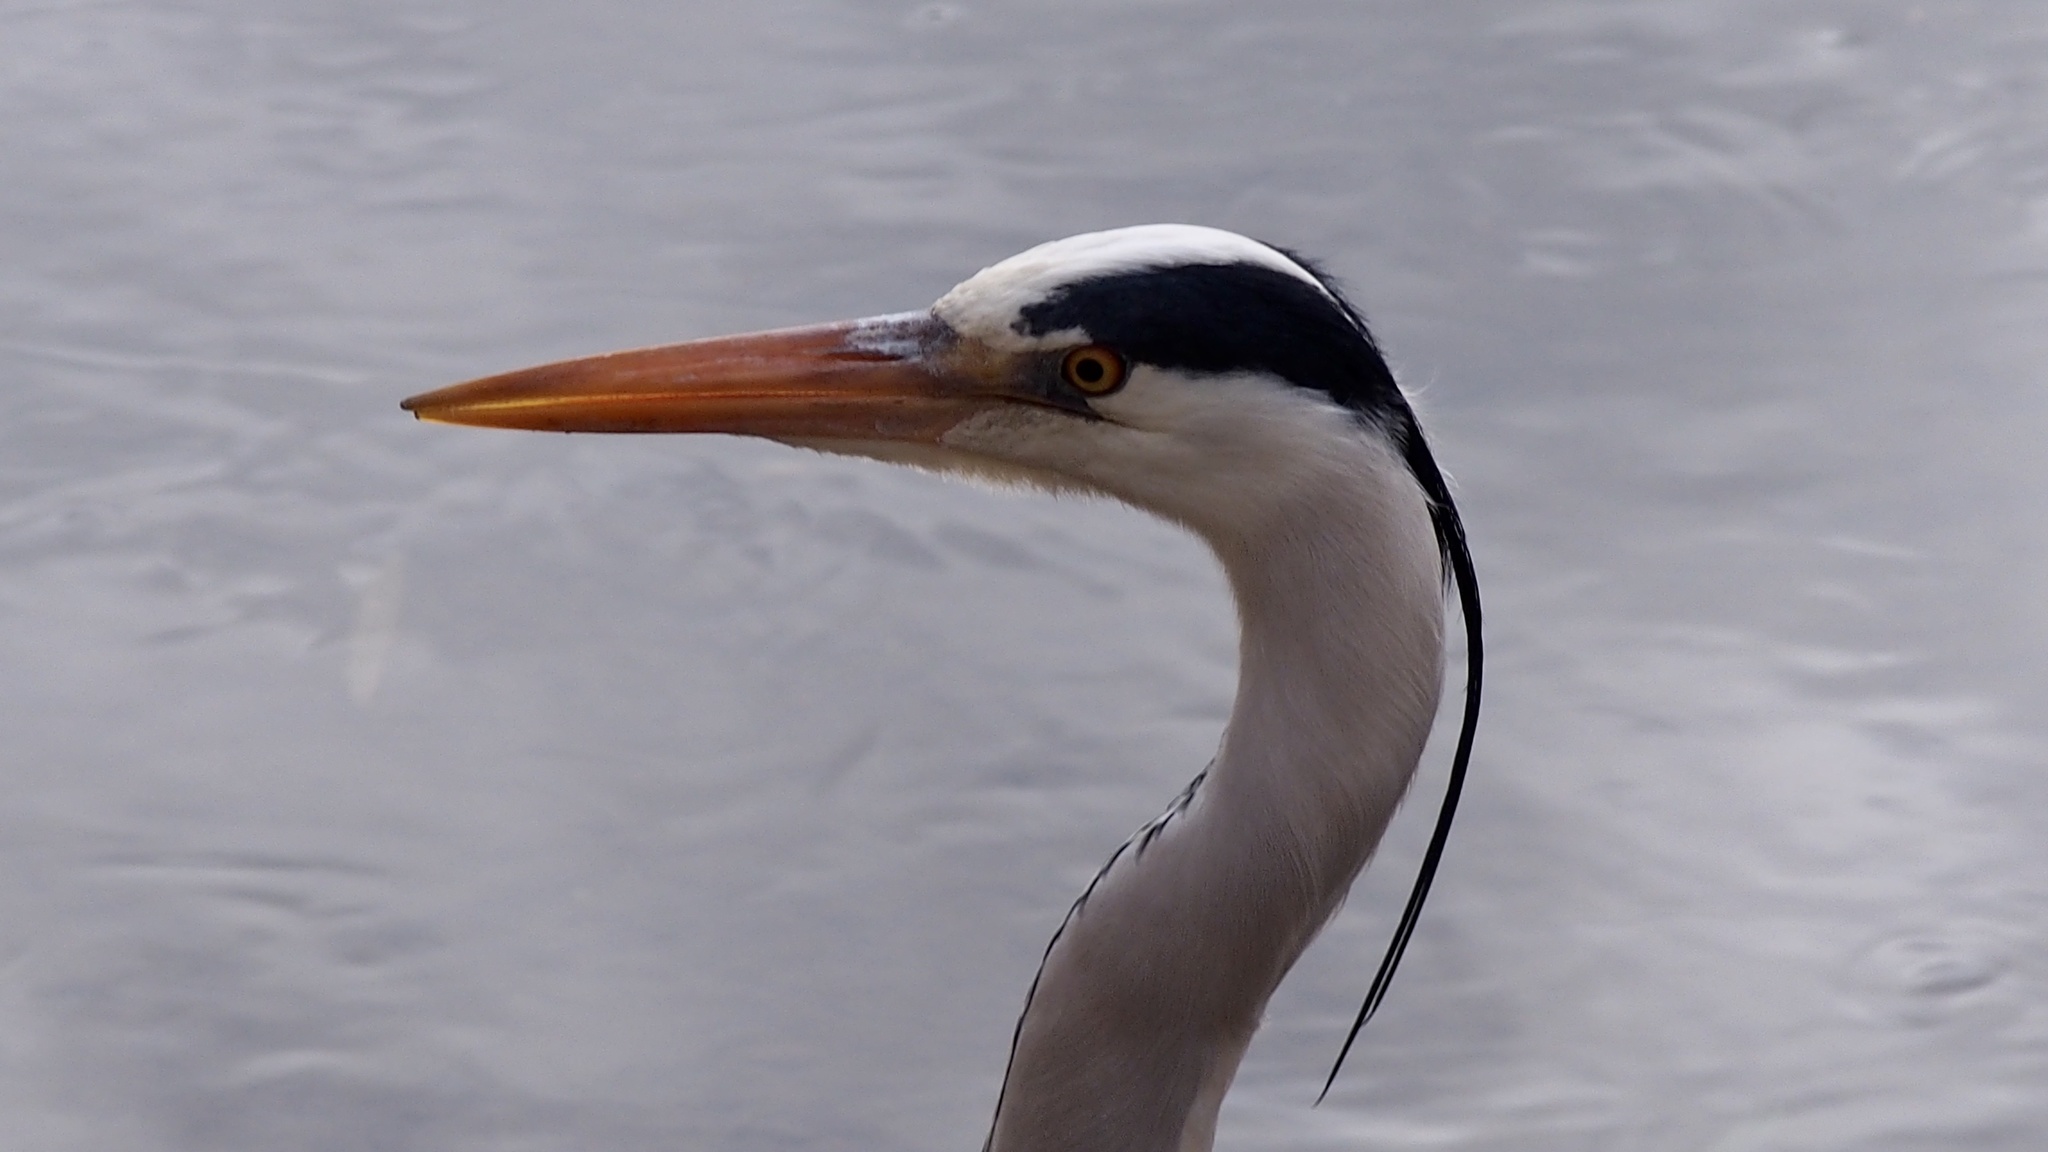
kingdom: Animalia
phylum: Chordata
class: Aves
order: Pelecaniformes
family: Ardeidae
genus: Ardea
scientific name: Ardea cinerea
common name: Grey heron
